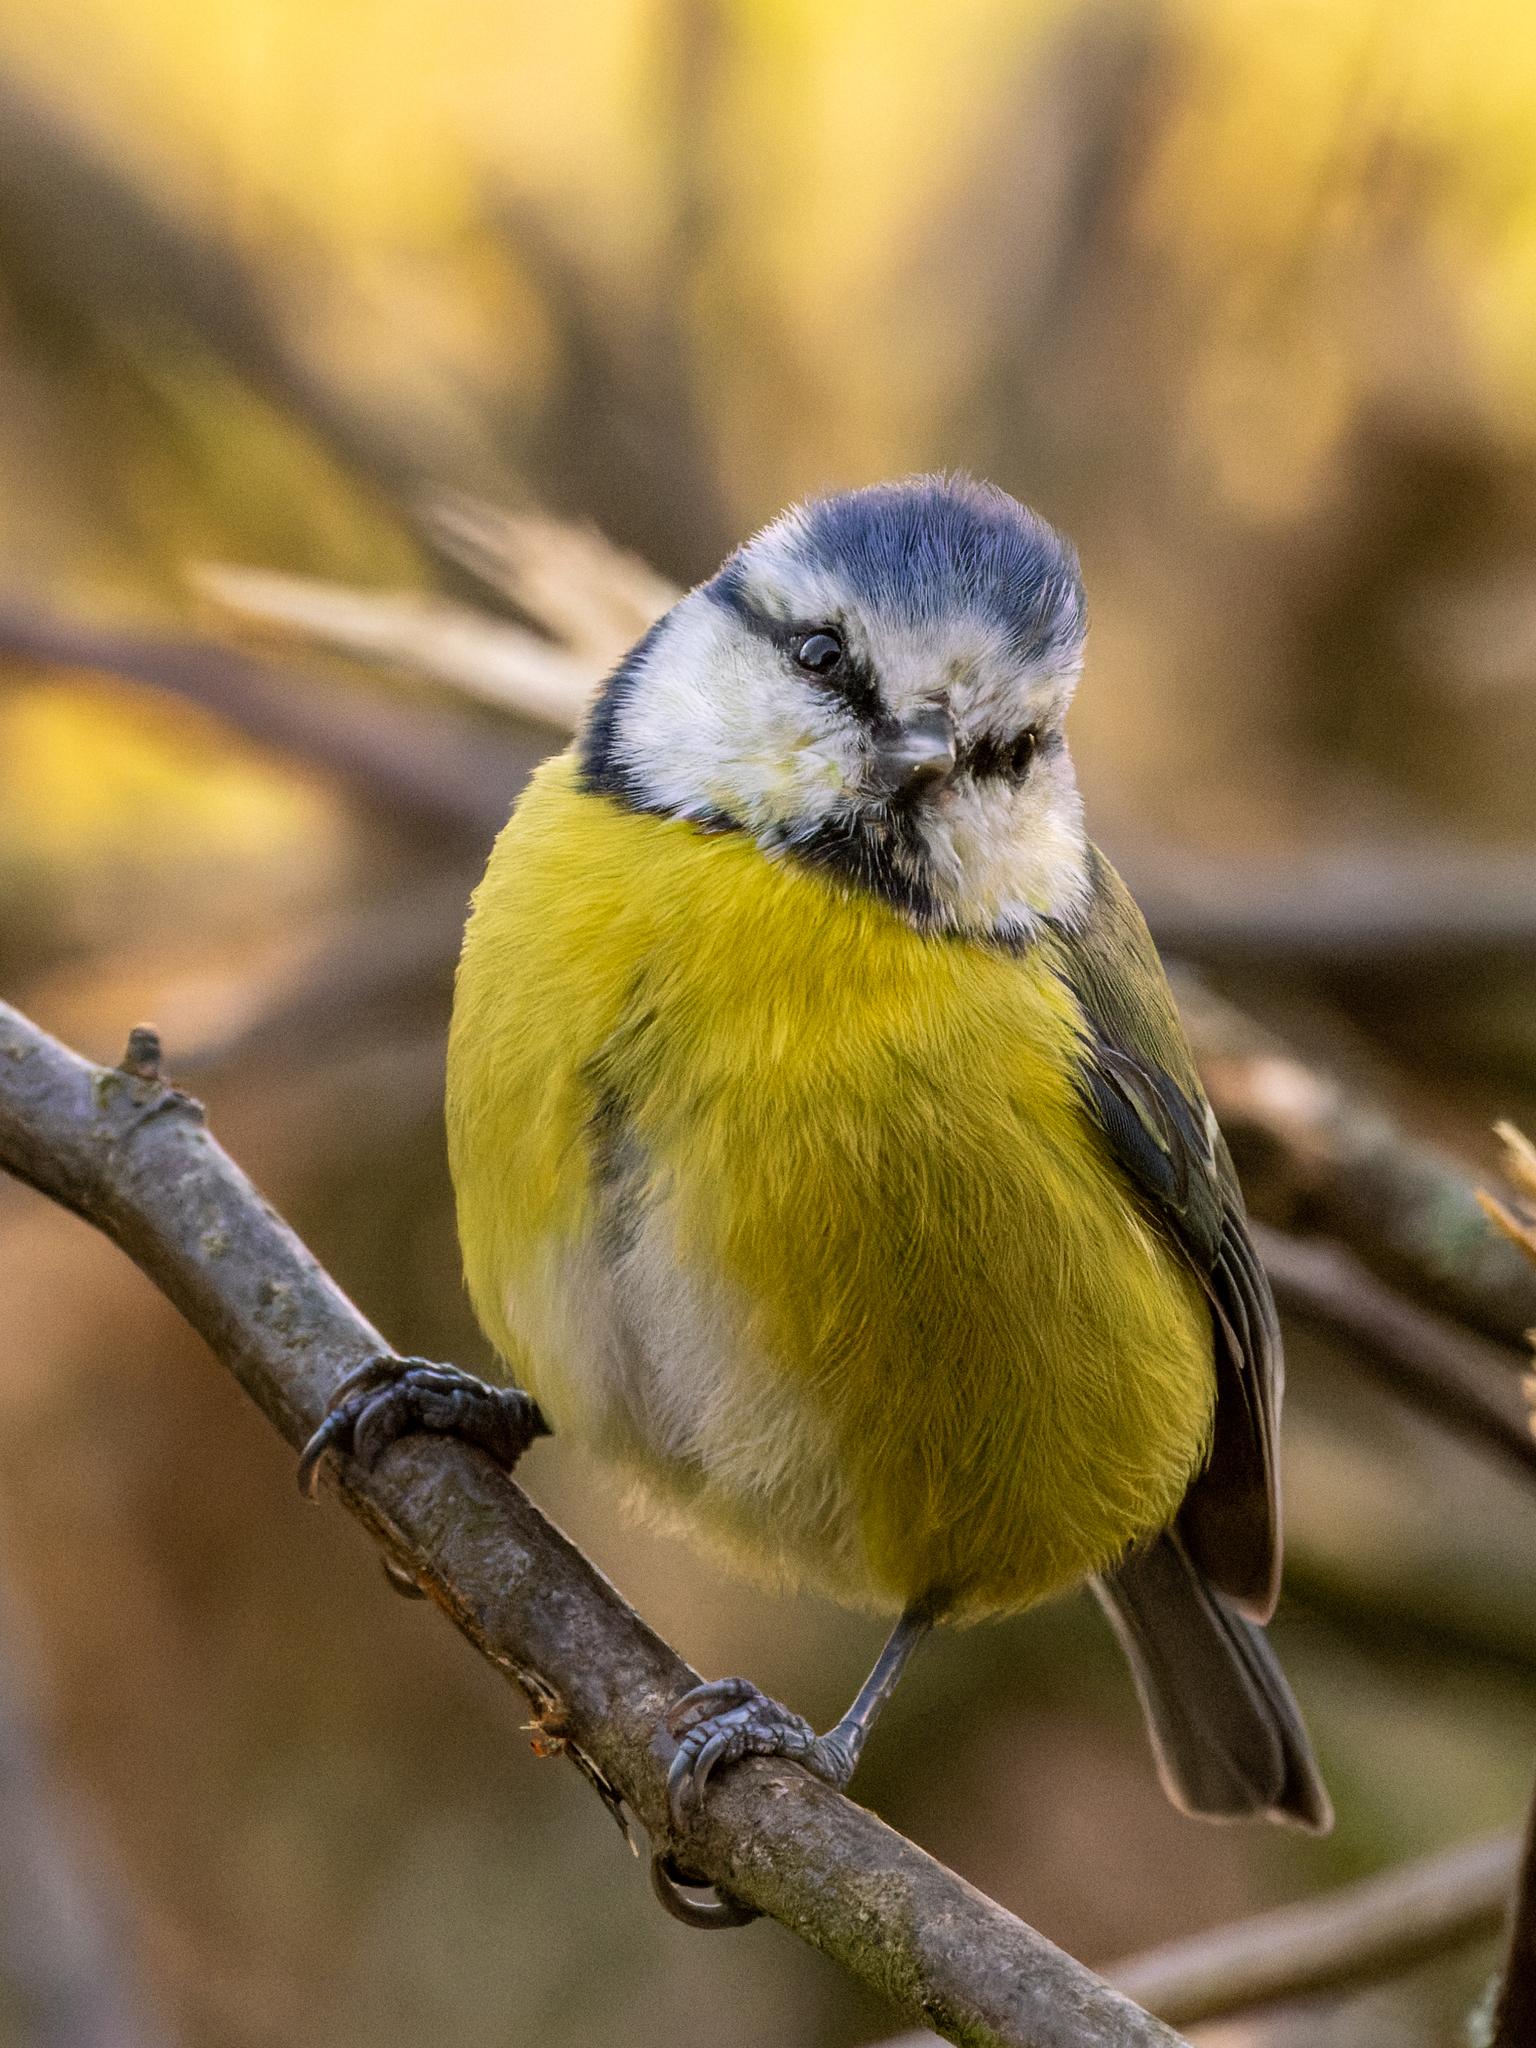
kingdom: Animalia
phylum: Chordata
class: Aves
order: Passeriformes
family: Paridae
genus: Cyanistes
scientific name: Cyanistes caeruleus
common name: Eurasian blue tit
